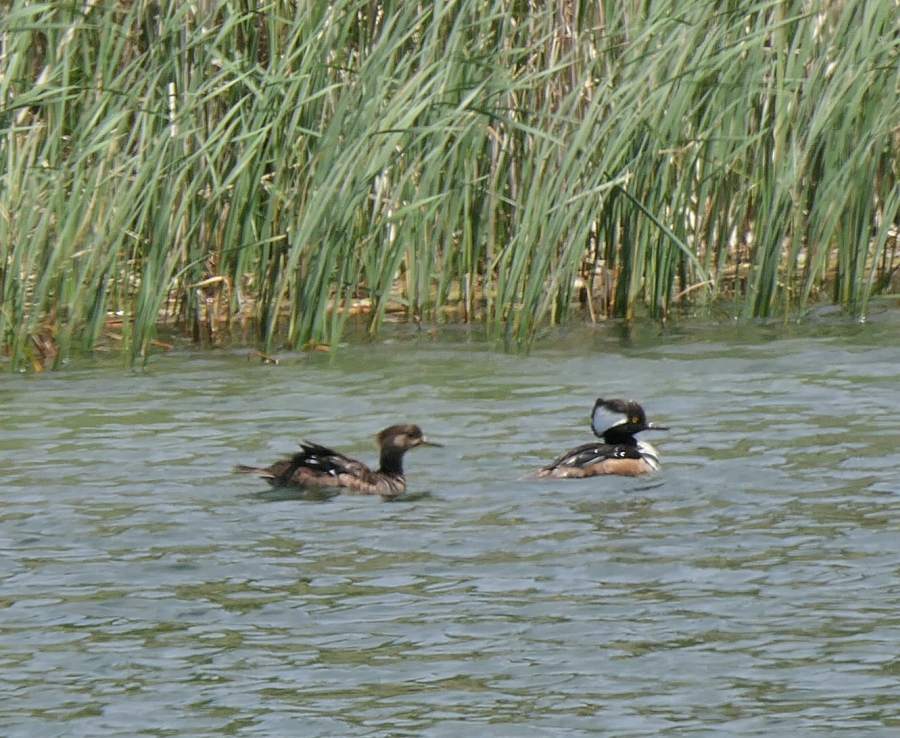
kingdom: Animalia
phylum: Chordata
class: Aves
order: Anseriformes
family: Anatidae
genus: Lophodytes
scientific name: Lophodytes cucullatus
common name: Hooded merganser
